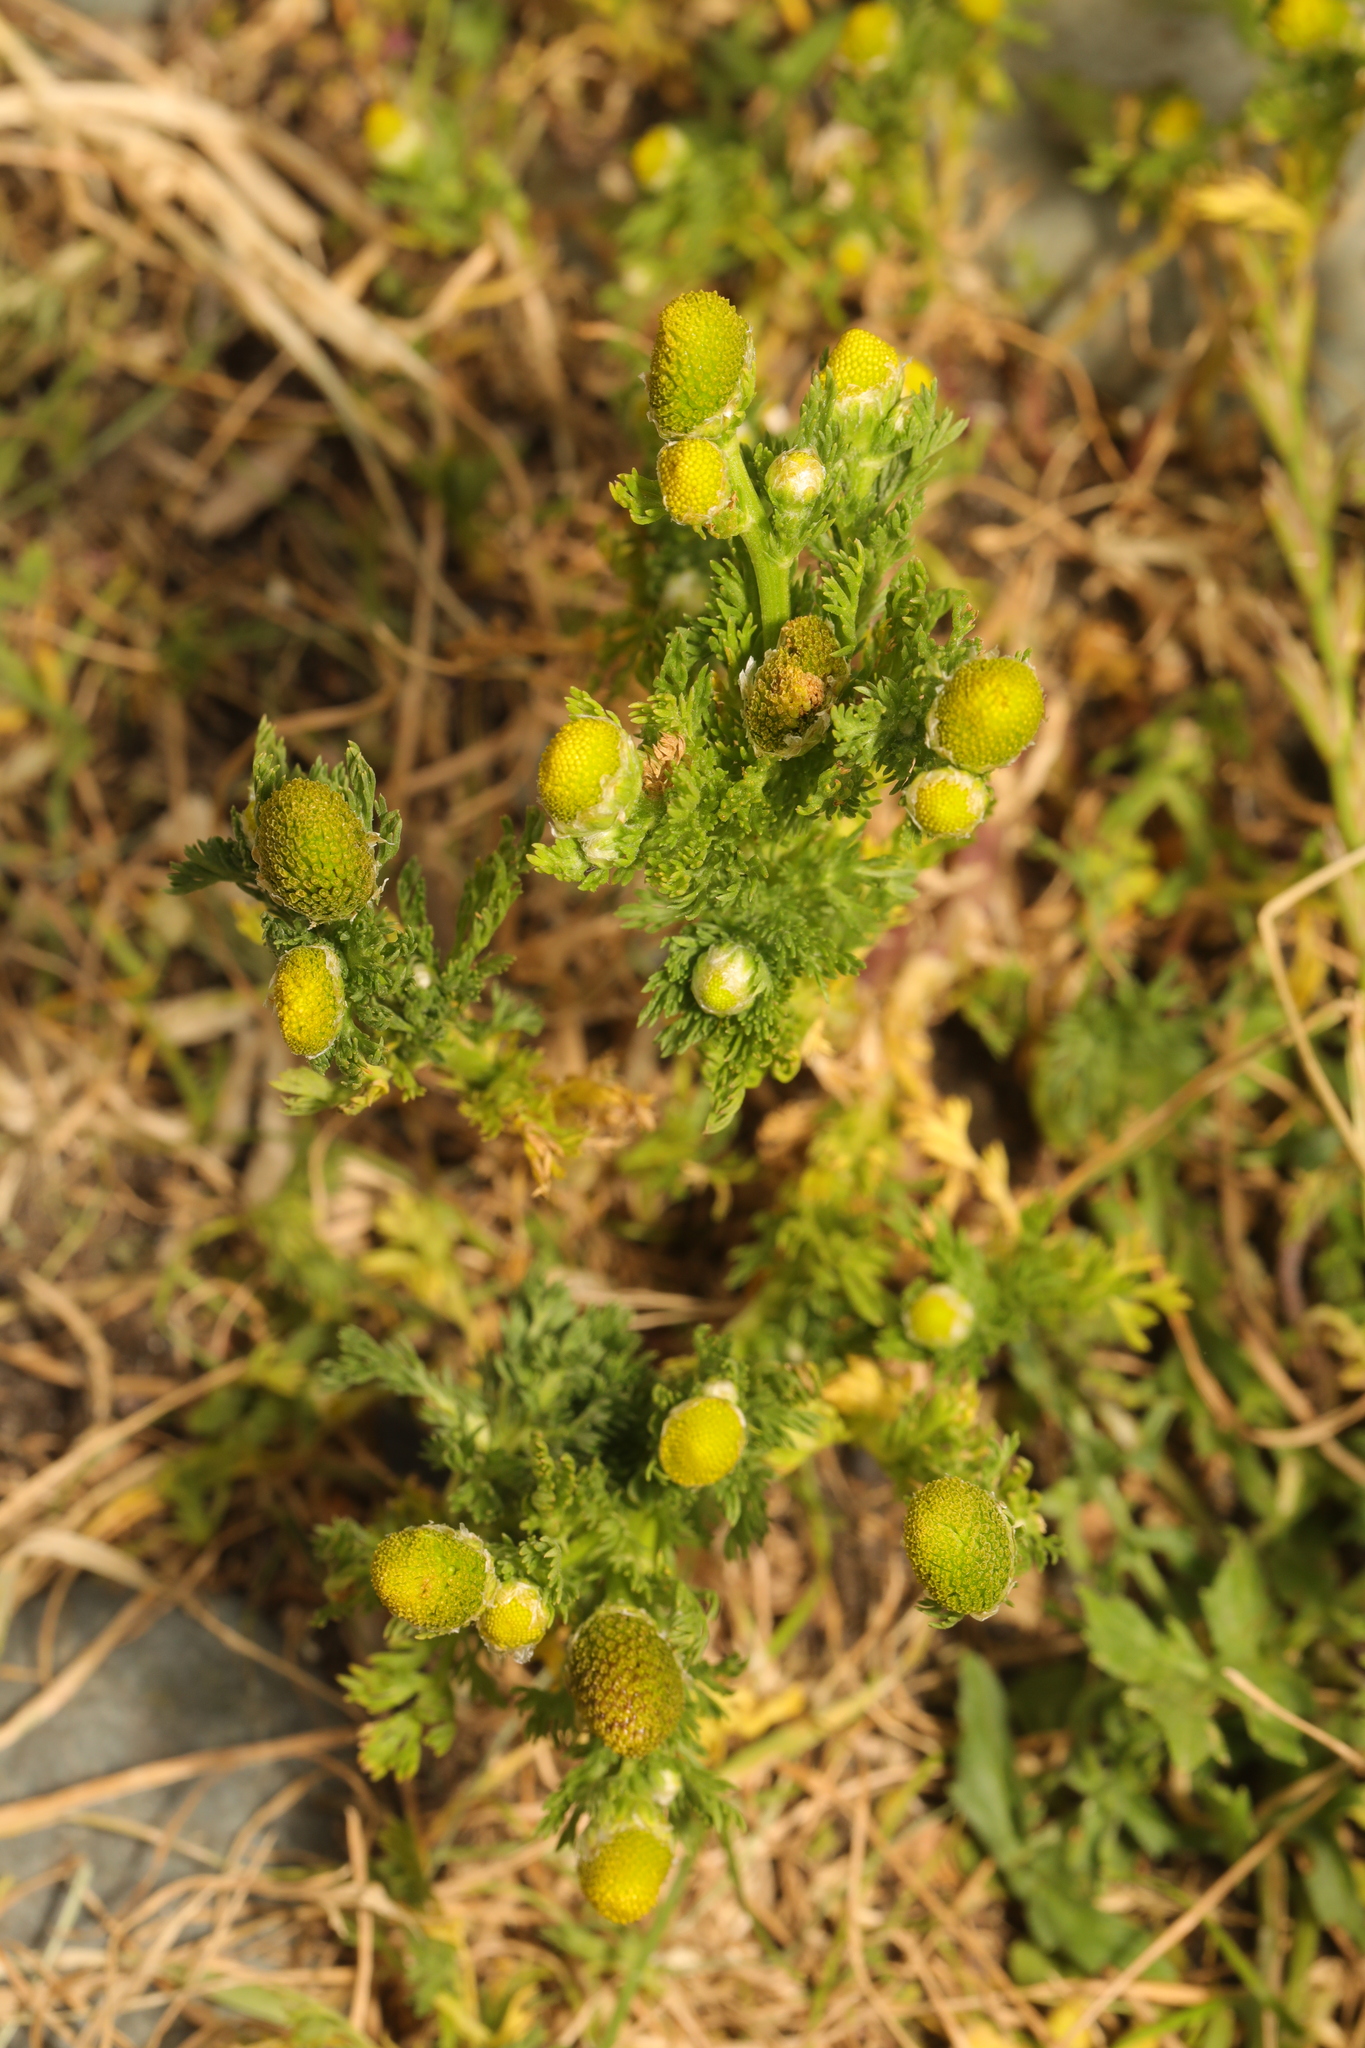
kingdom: Plantae
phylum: Tracheophyta
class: Magnoliopsida
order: Asterales
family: Asteraceae
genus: Matricaria
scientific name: Matricaria discoidea
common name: Disc mayweed
